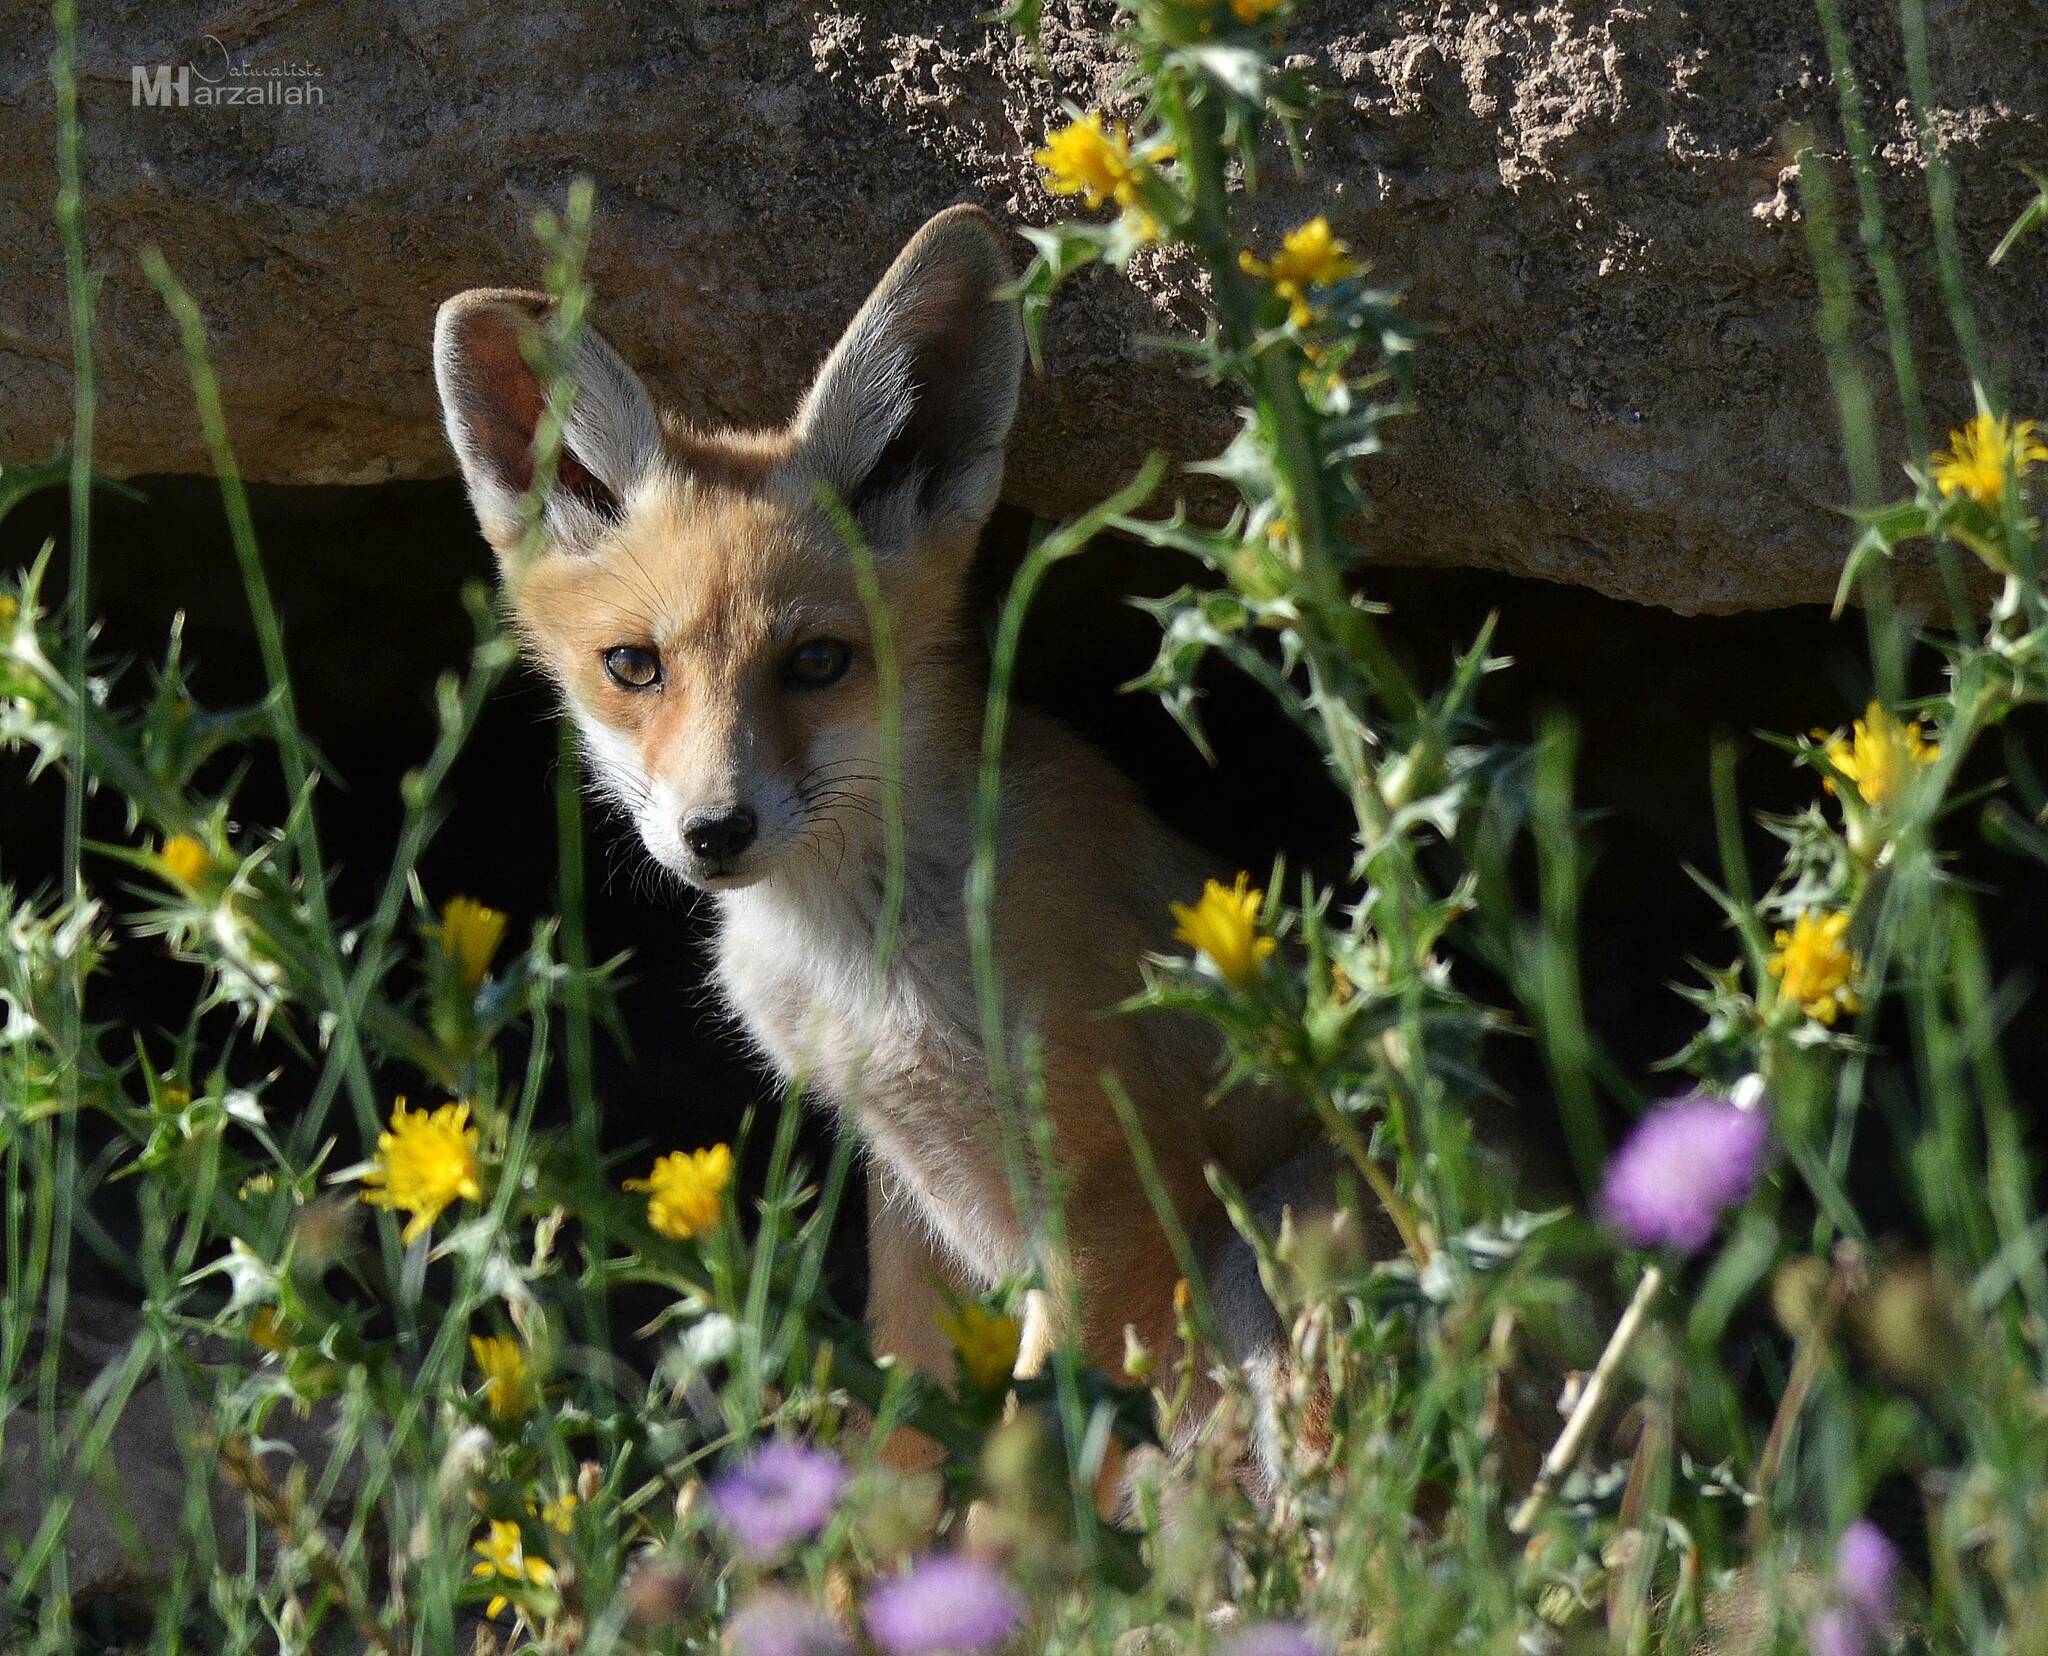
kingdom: Animalia
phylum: Chordata
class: Mammalia
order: Carnivora
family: Canidae
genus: Vulpes
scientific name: Vulpes vulpes
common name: Red fox
